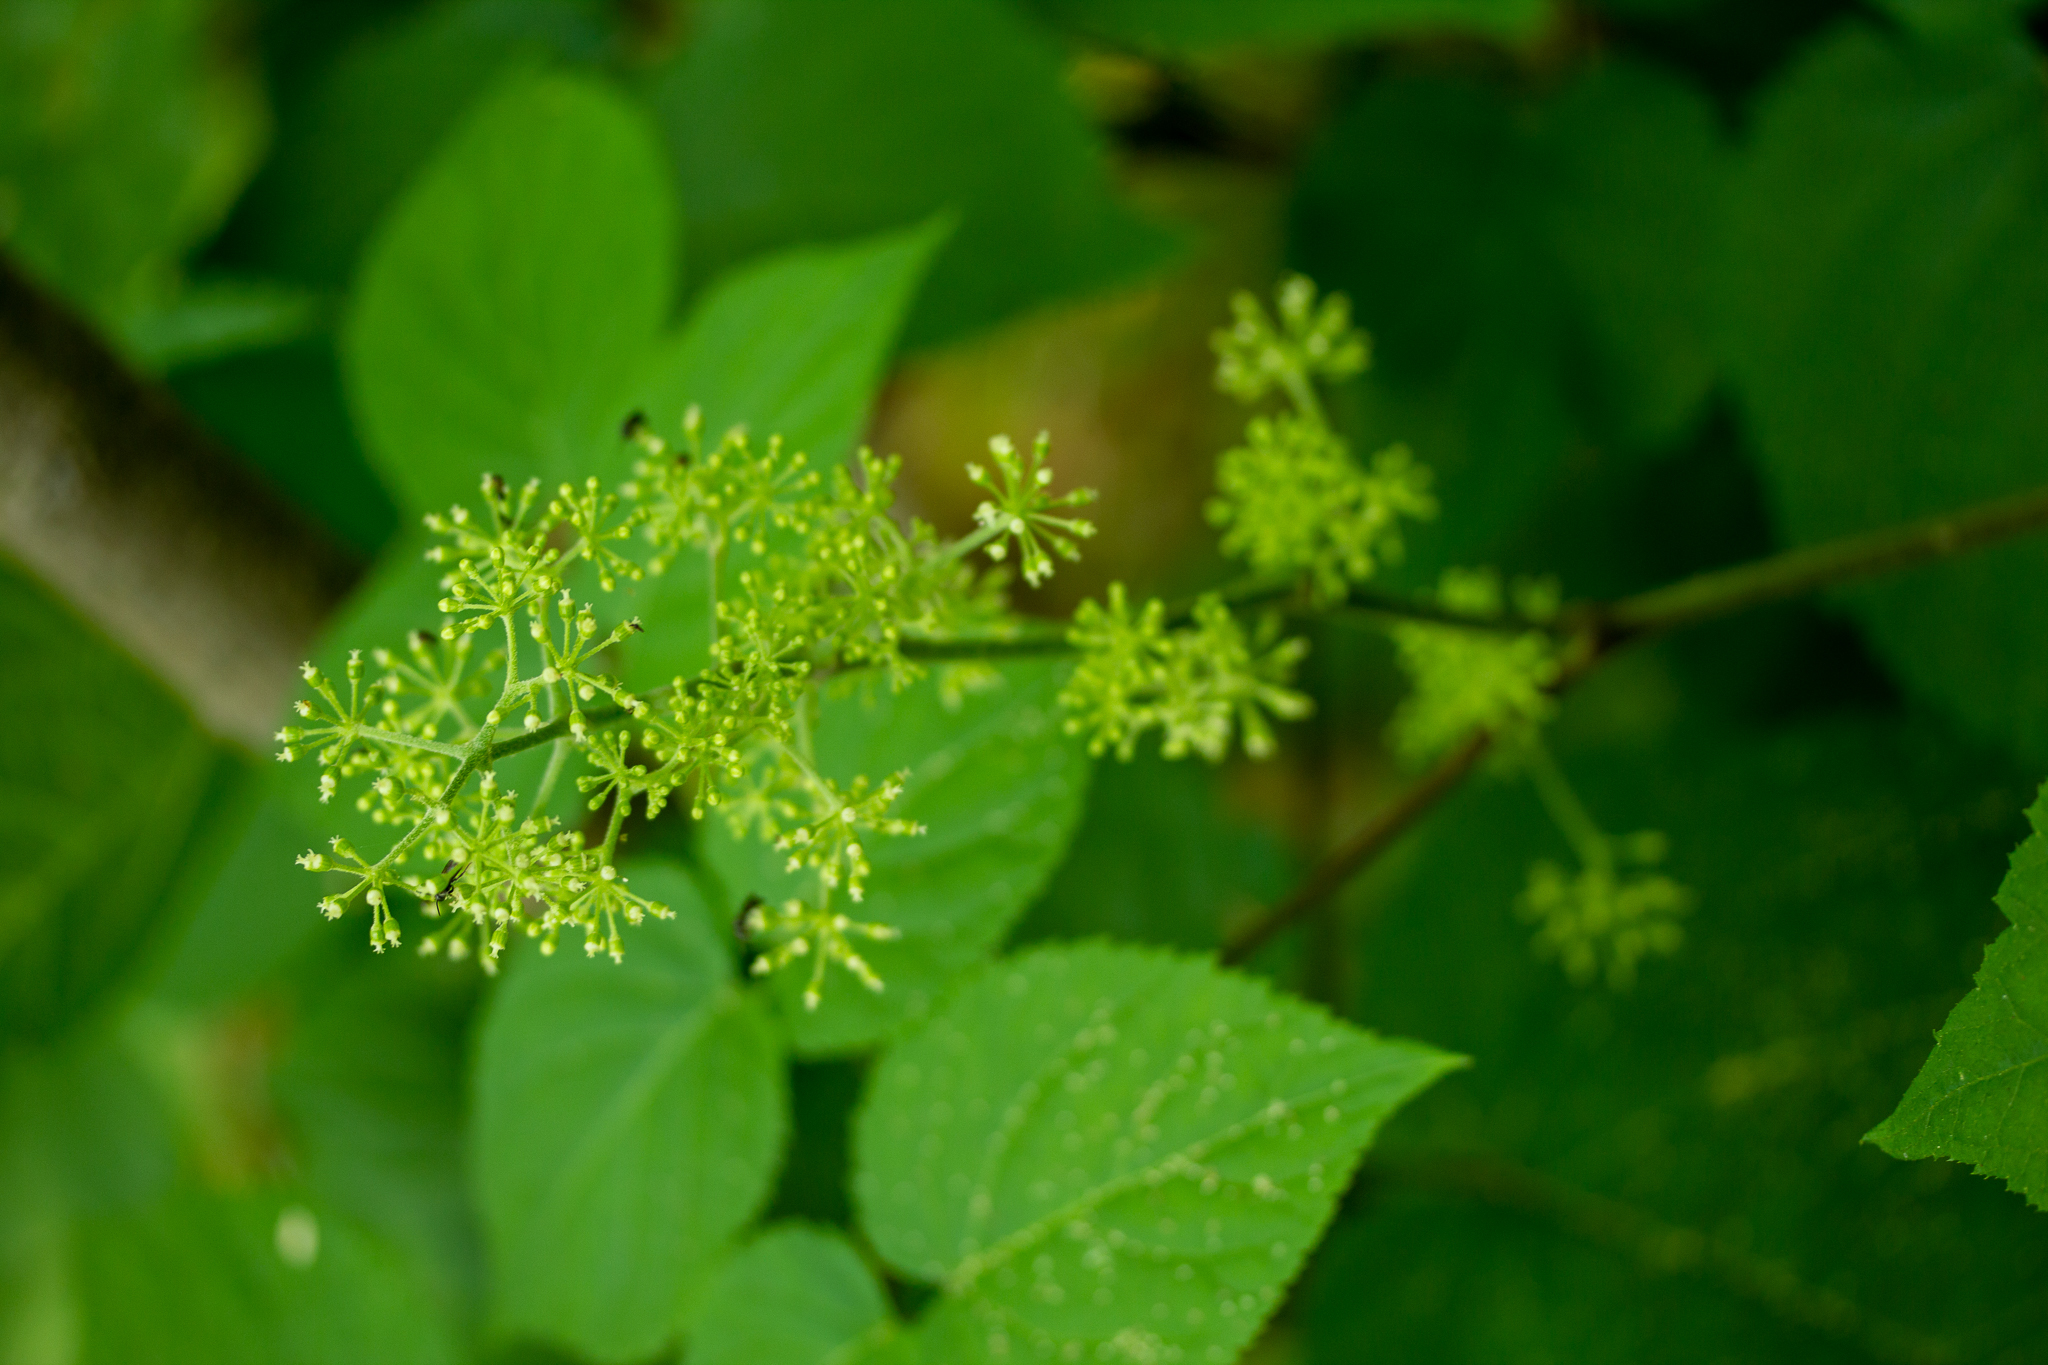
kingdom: Plantae
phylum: Tracheophyta
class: Magnoliopsida
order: Apiales
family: Araliaceae
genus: Aralia
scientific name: Aralia racemosa
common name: American-spikenard
